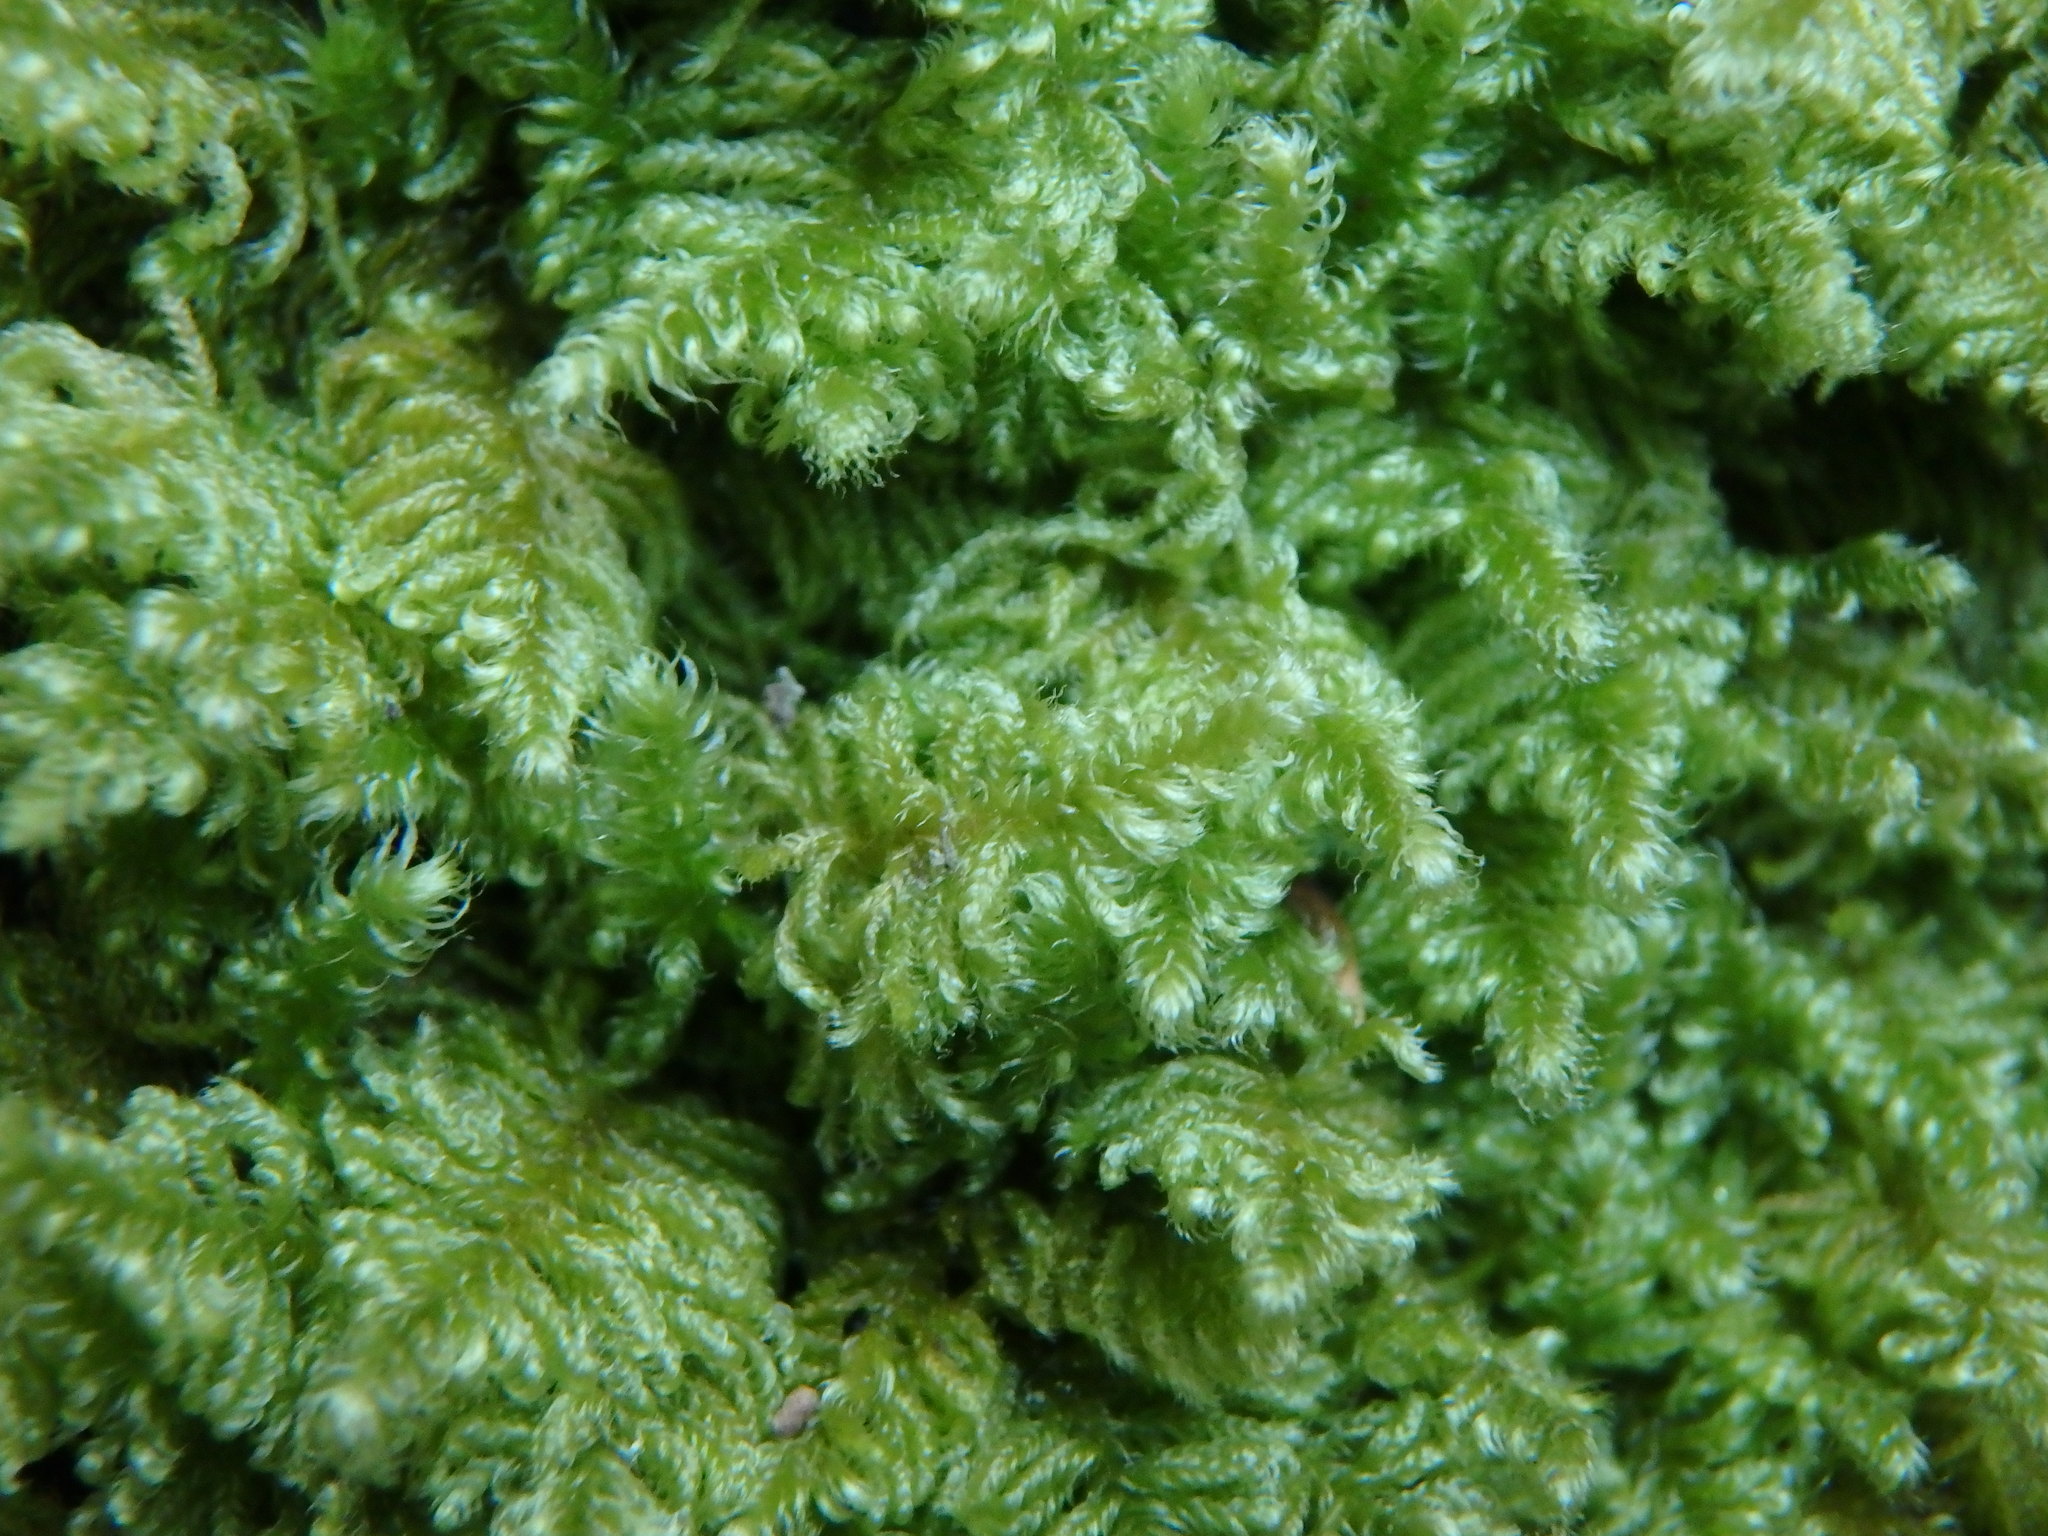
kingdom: Plantae
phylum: Bryophyta
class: Bryopsida
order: Hypnales
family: Myuriaceae
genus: Ctenidium
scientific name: Ctenidium molluscum
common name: Chalk comb-moss
